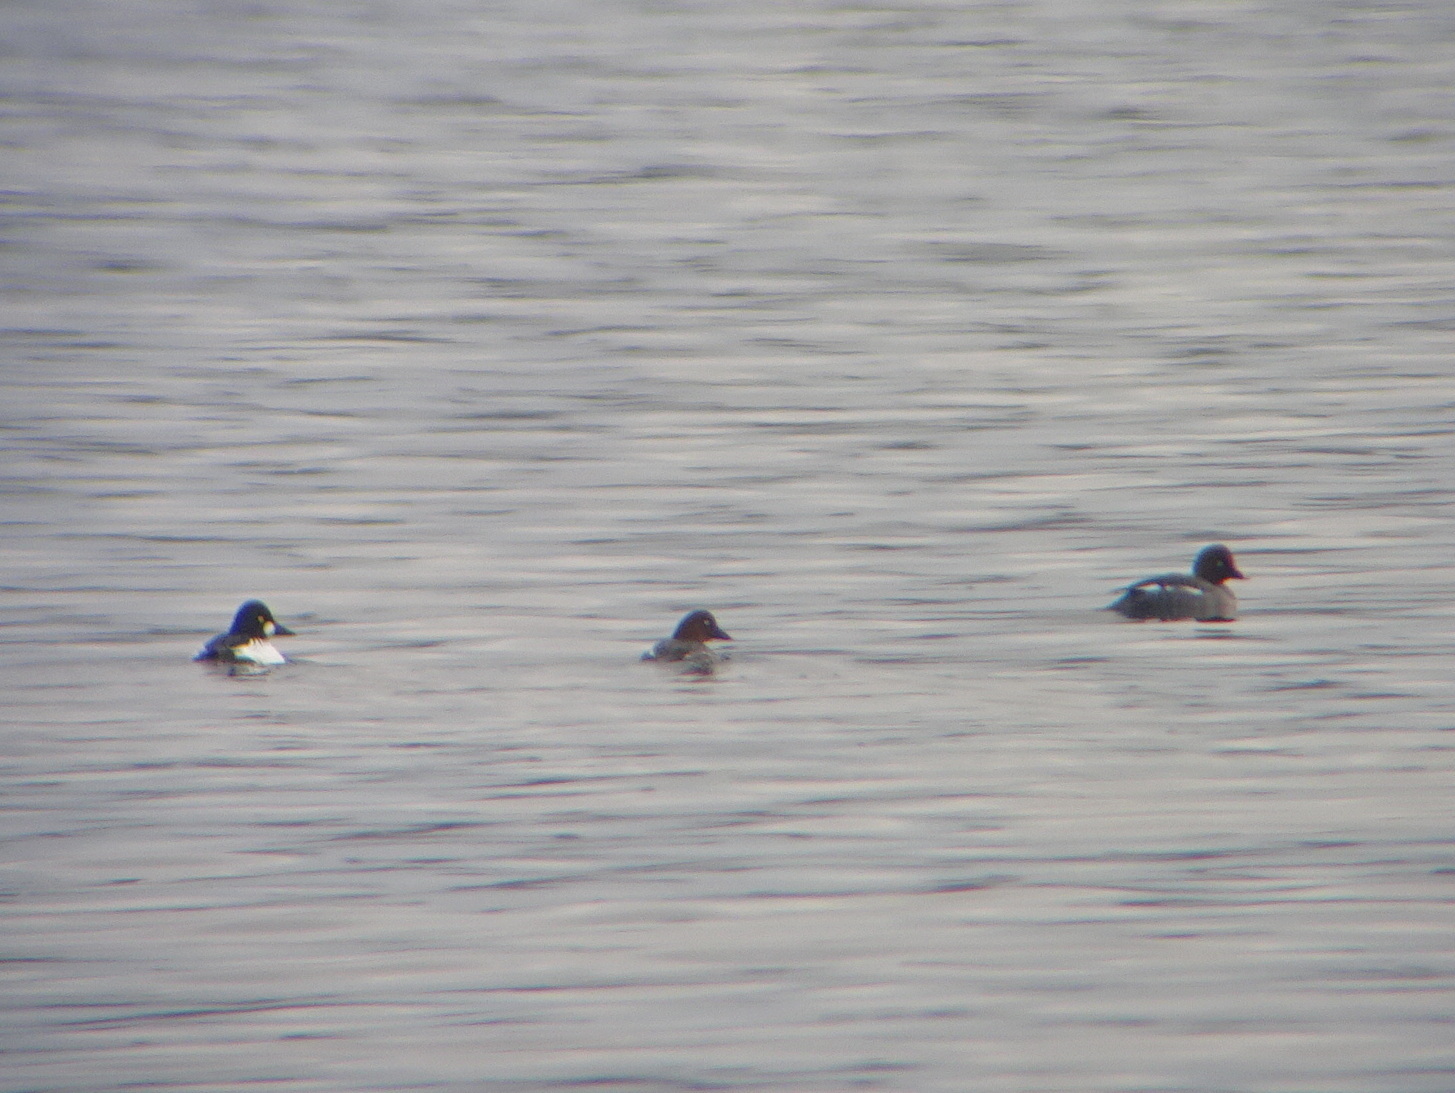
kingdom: Animalia
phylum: Chordata
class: Aves
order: Anseriformes
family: Anatidae
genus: Bucephala
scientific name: Bucephala clangula
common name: Common goldeneye
